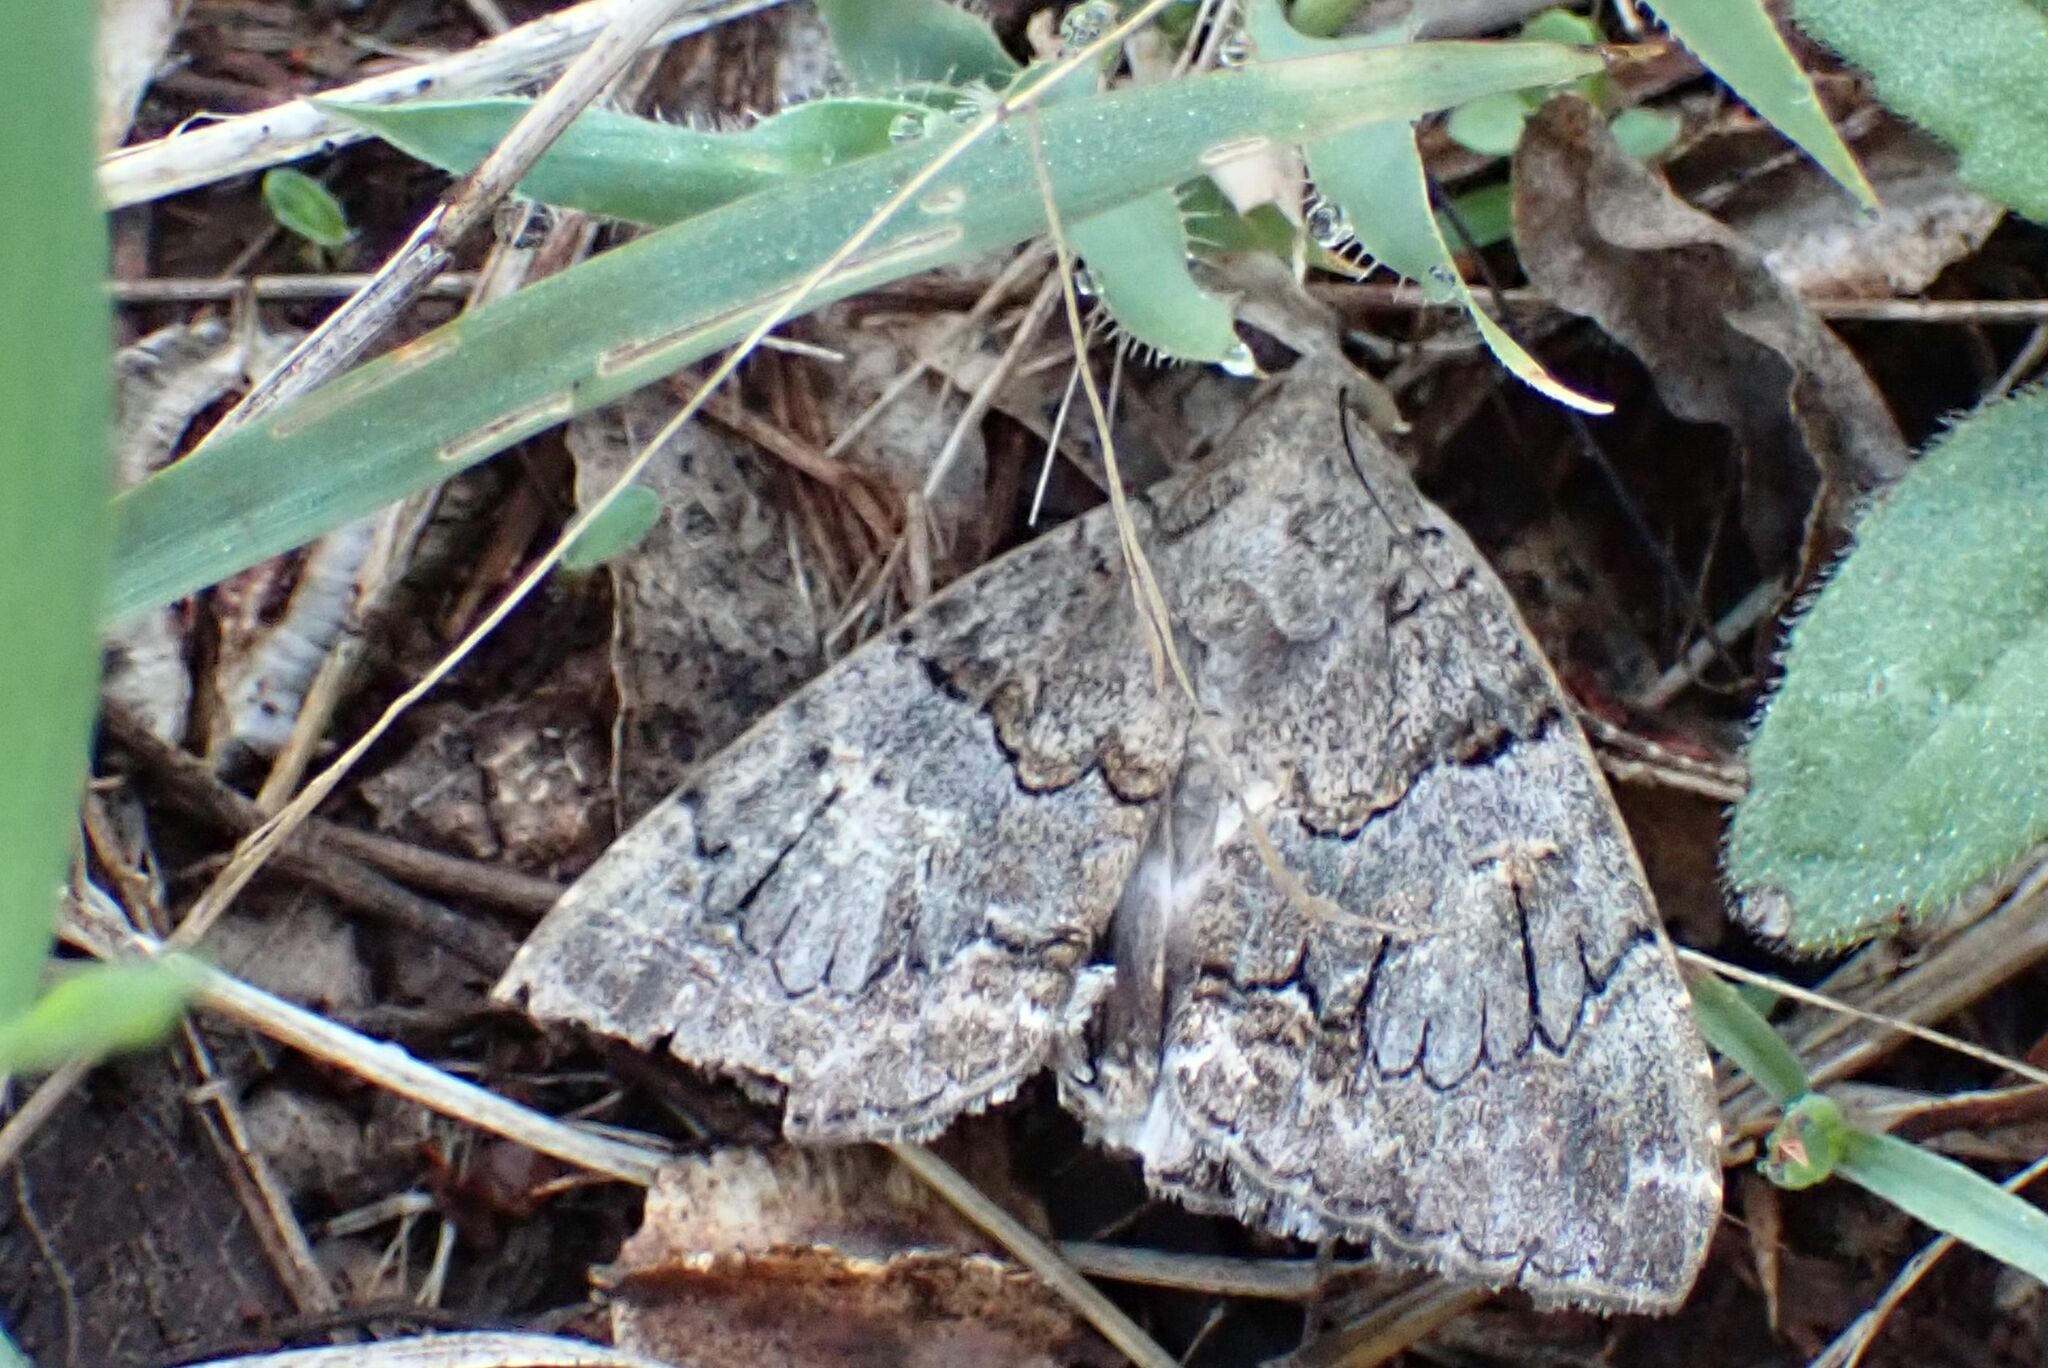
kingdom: Animalia
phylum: Arthropoda
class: Insecta
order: Lepidoptera
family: Erebidae
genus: Achaea
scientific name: Achaea catella
